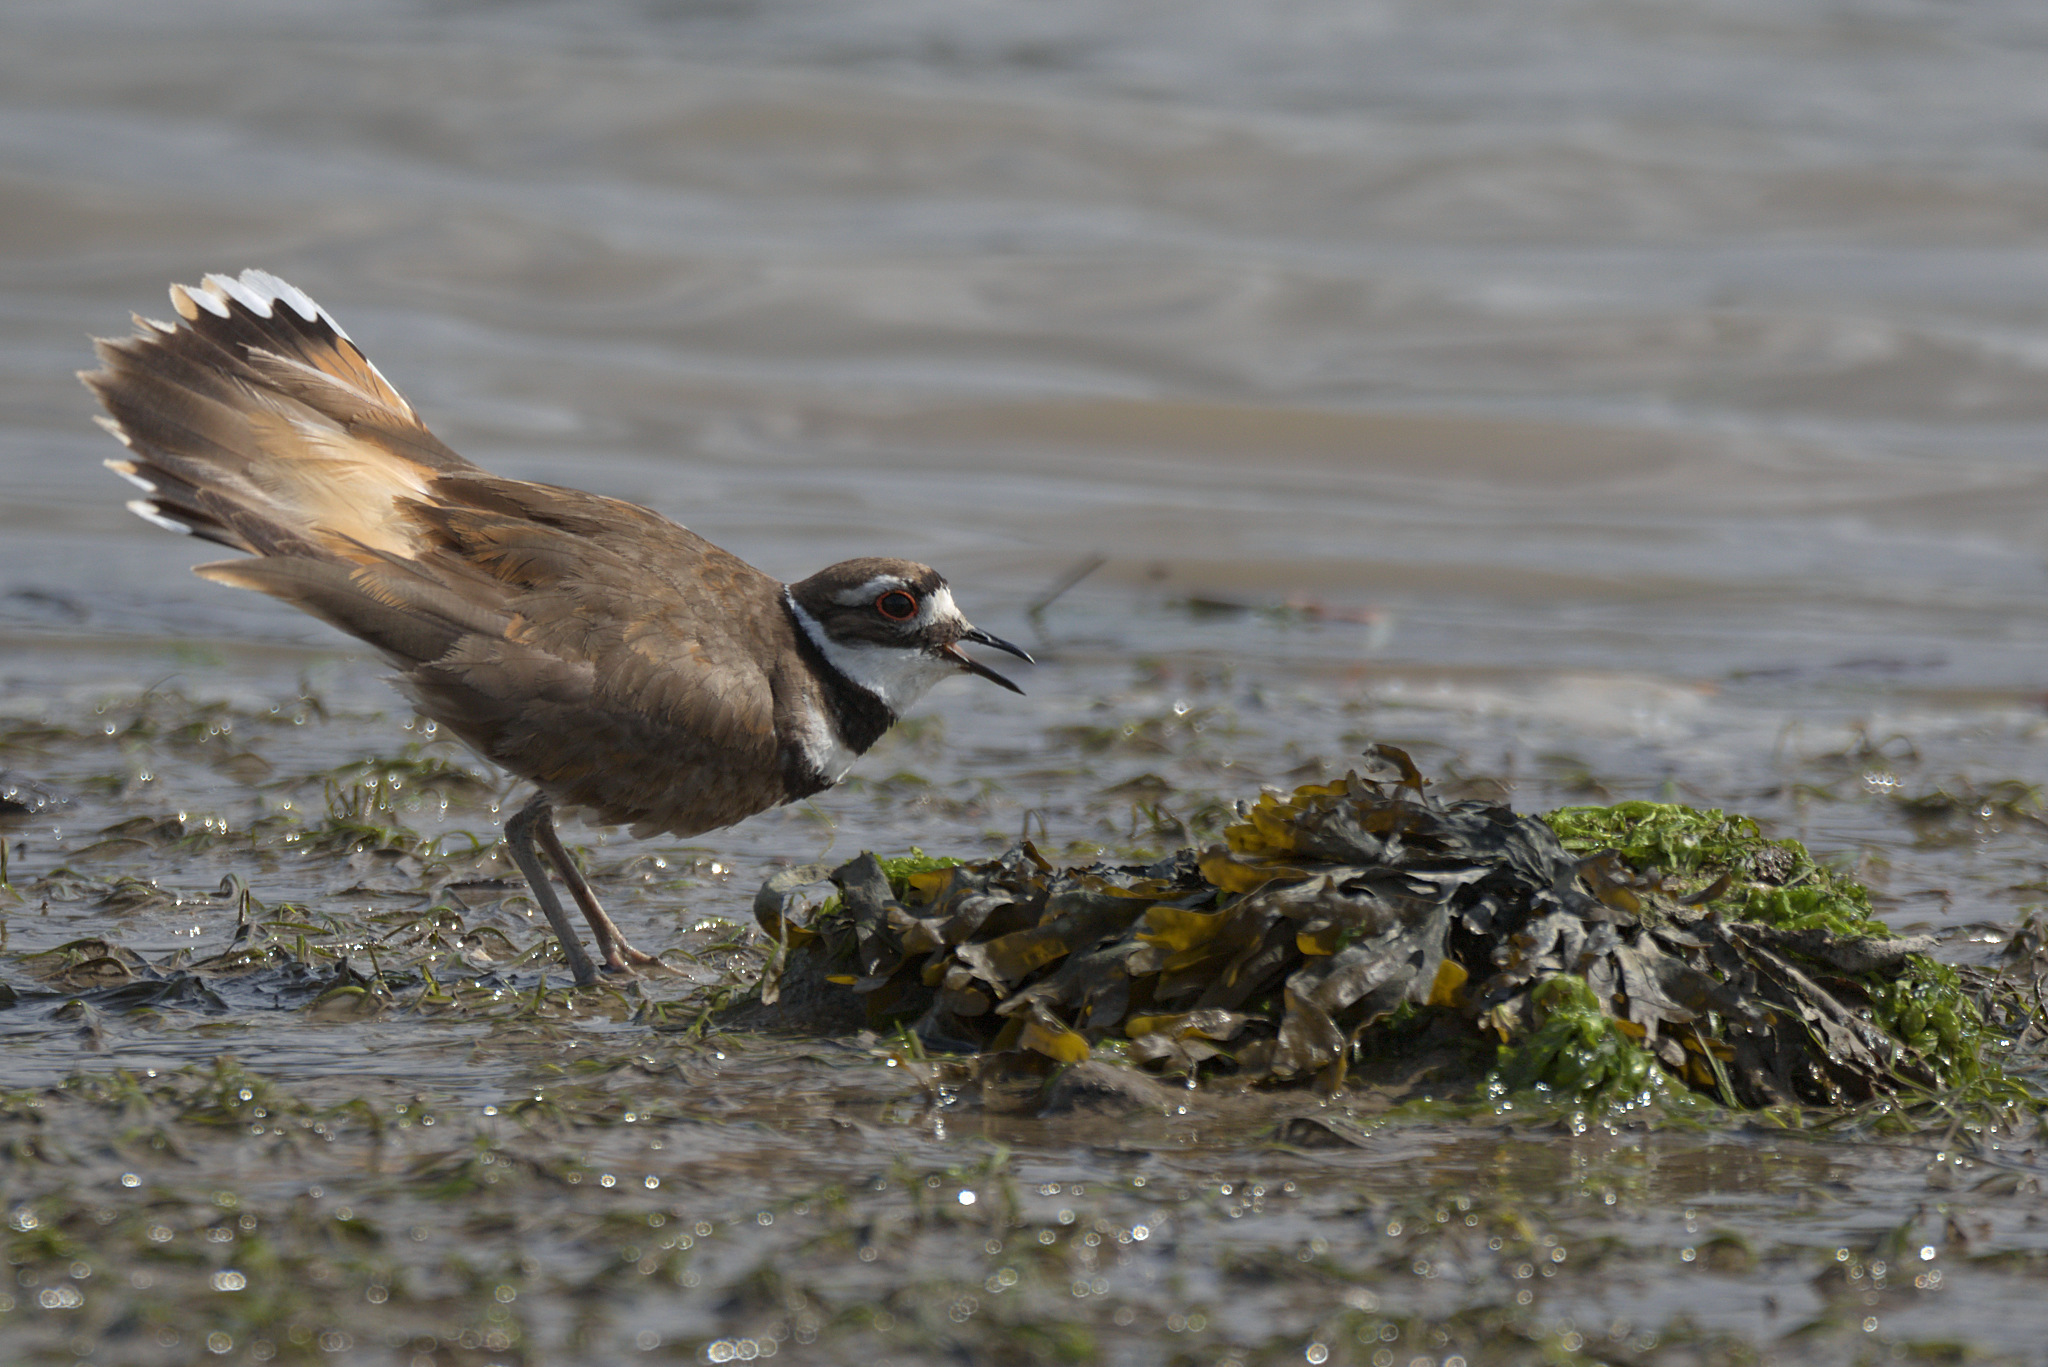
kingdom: Animalia
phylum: Chordata
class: Aves
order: Charadriiformes
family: Charadriidae
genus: Charadrius
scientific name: Charadrius vociferus
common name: Killdeer
